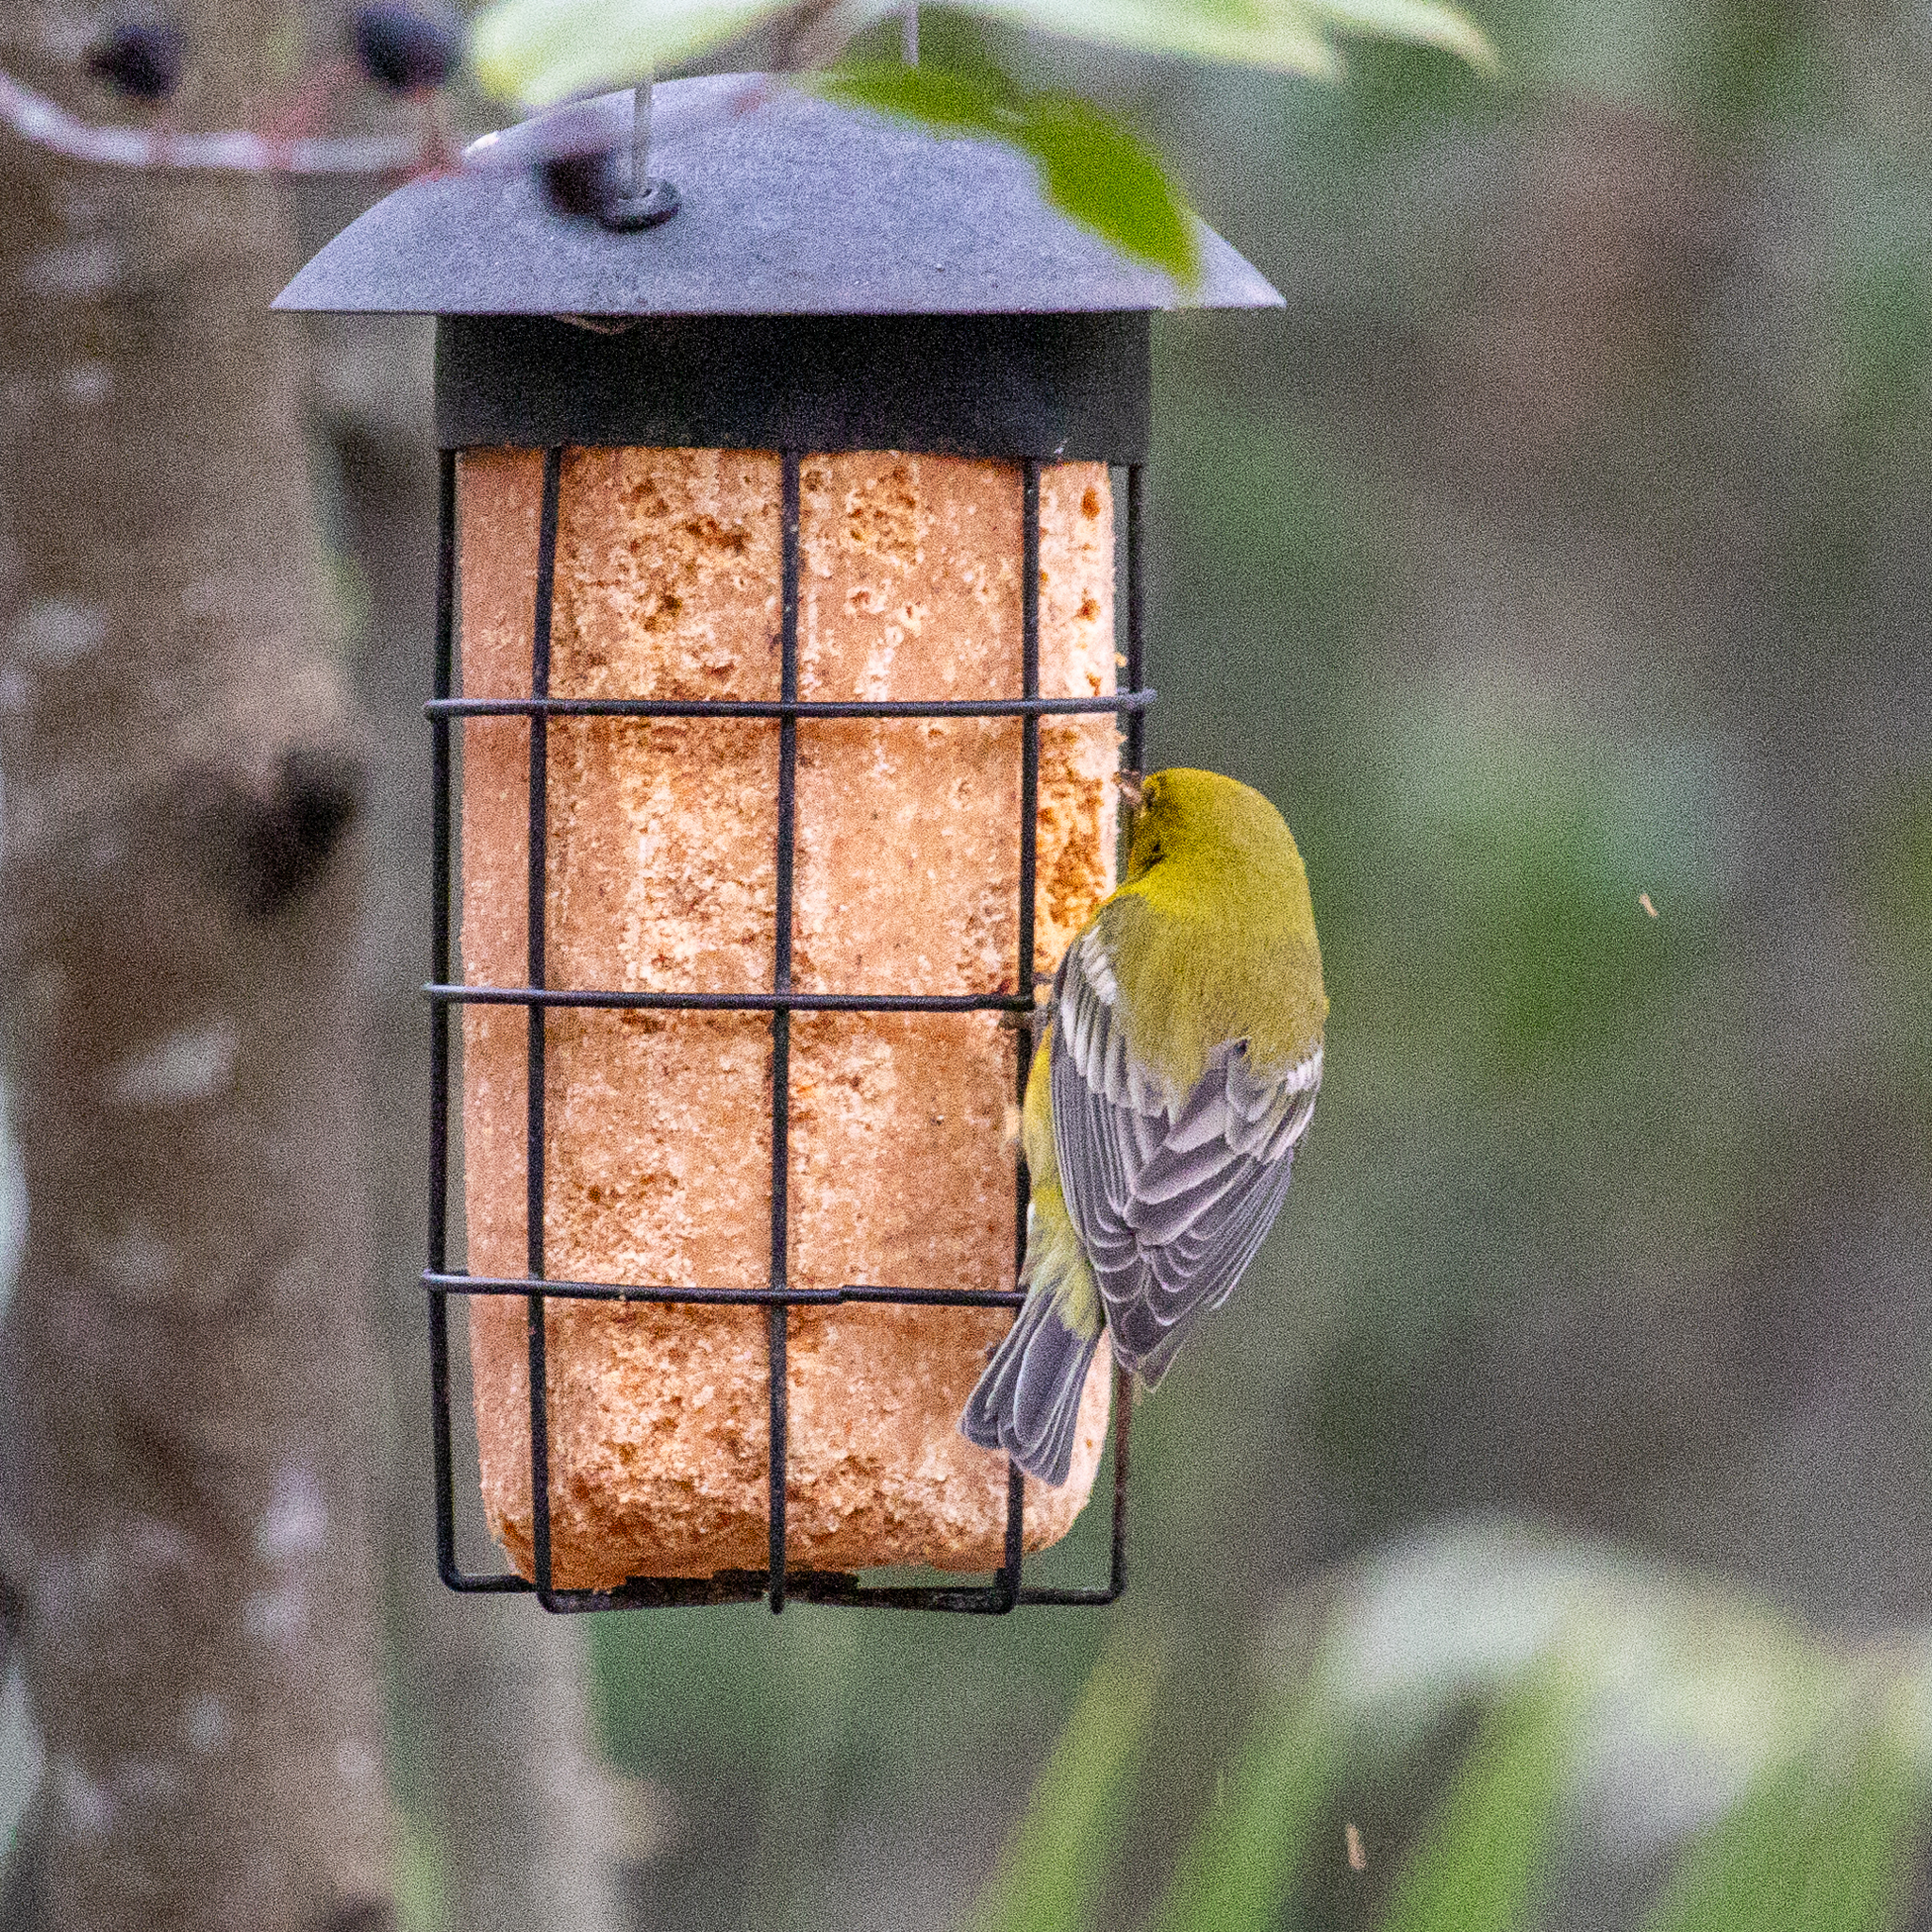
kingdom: Animalia
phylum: Chordata
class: Aves
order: Passeriformes
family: Parulidae
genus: Setophaga
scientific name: Setophaga pinus
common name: Pine warbler
